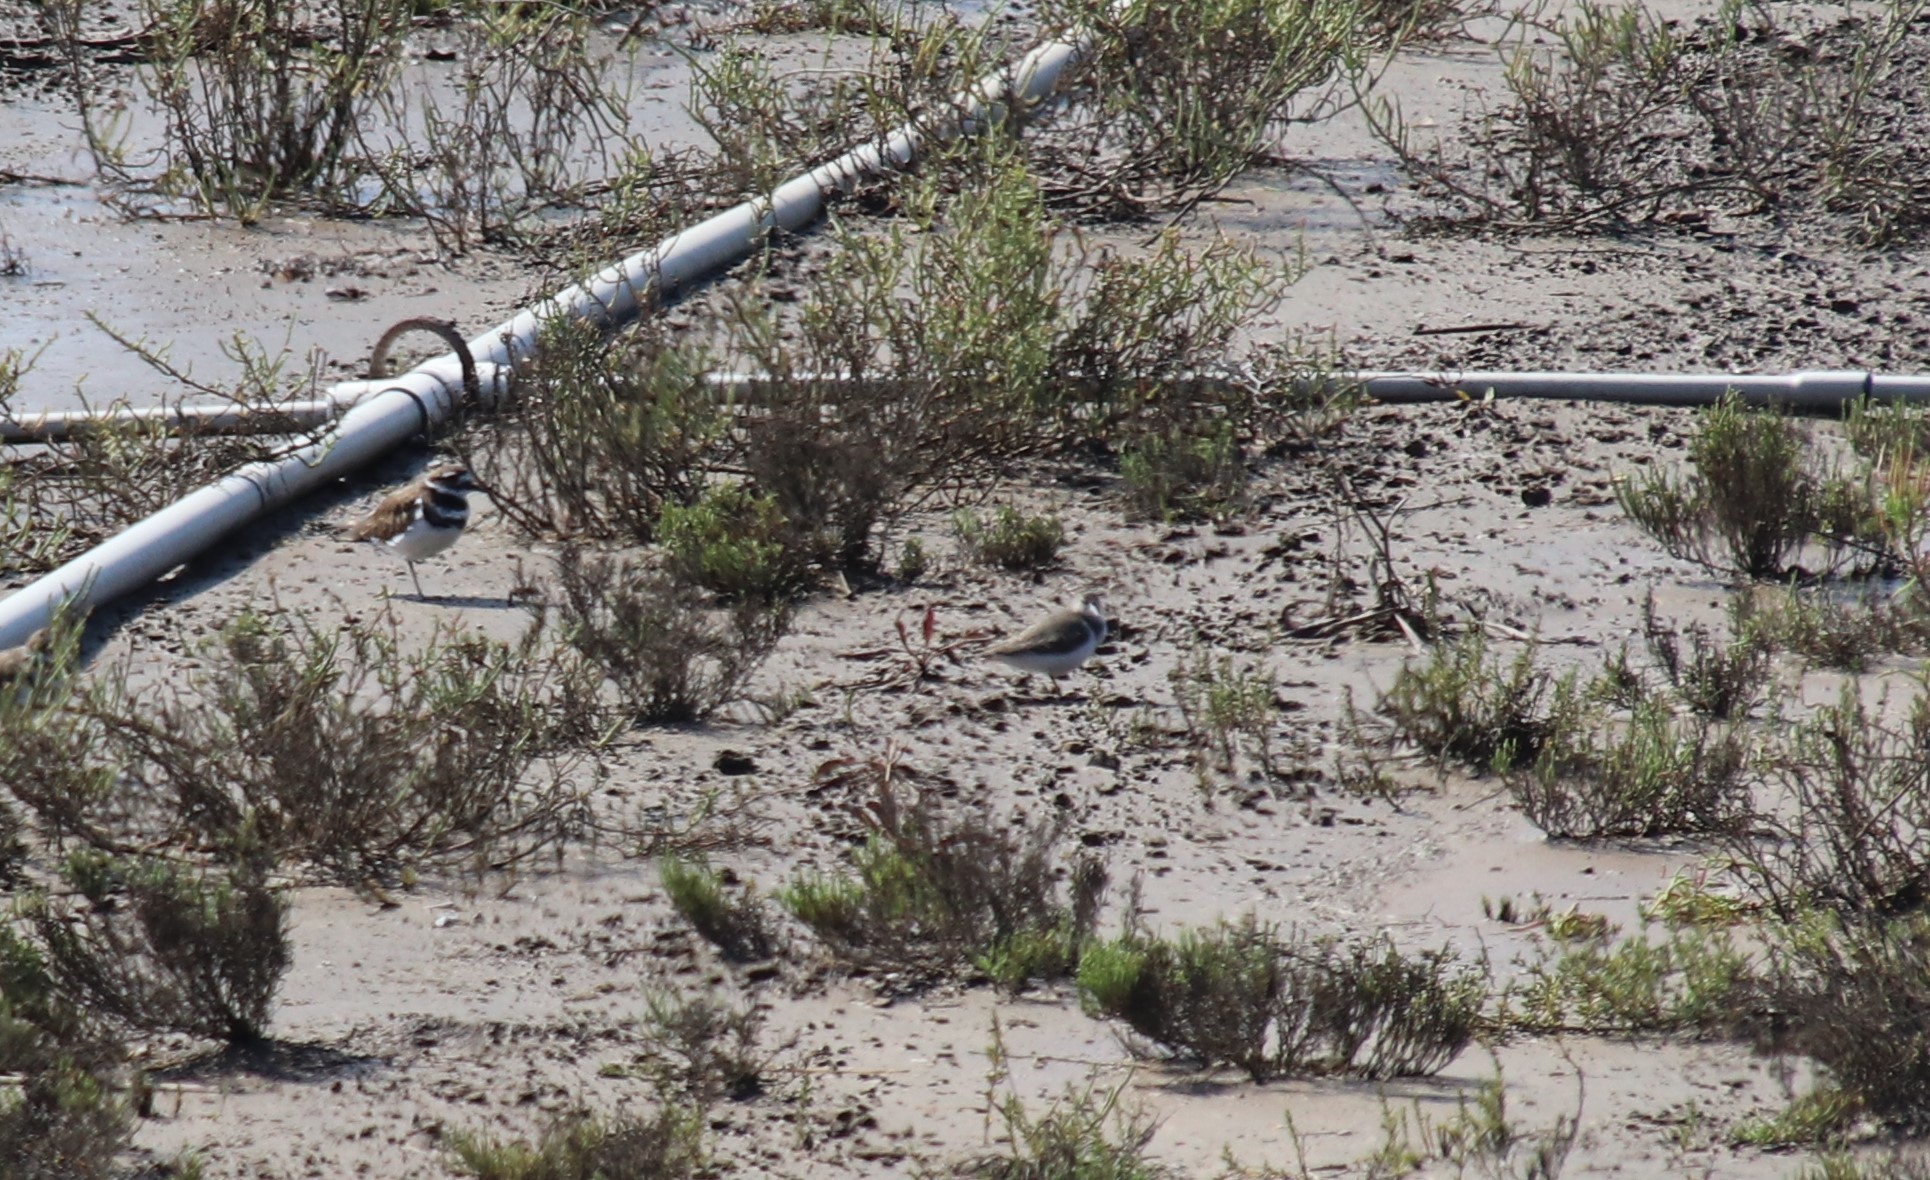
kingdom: Animalia
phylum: Chordata
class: Aves
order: Charadriiformes
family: Scolopacidae
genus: Actitis
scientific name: Actitis macularius
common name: Spotted sandpiper
